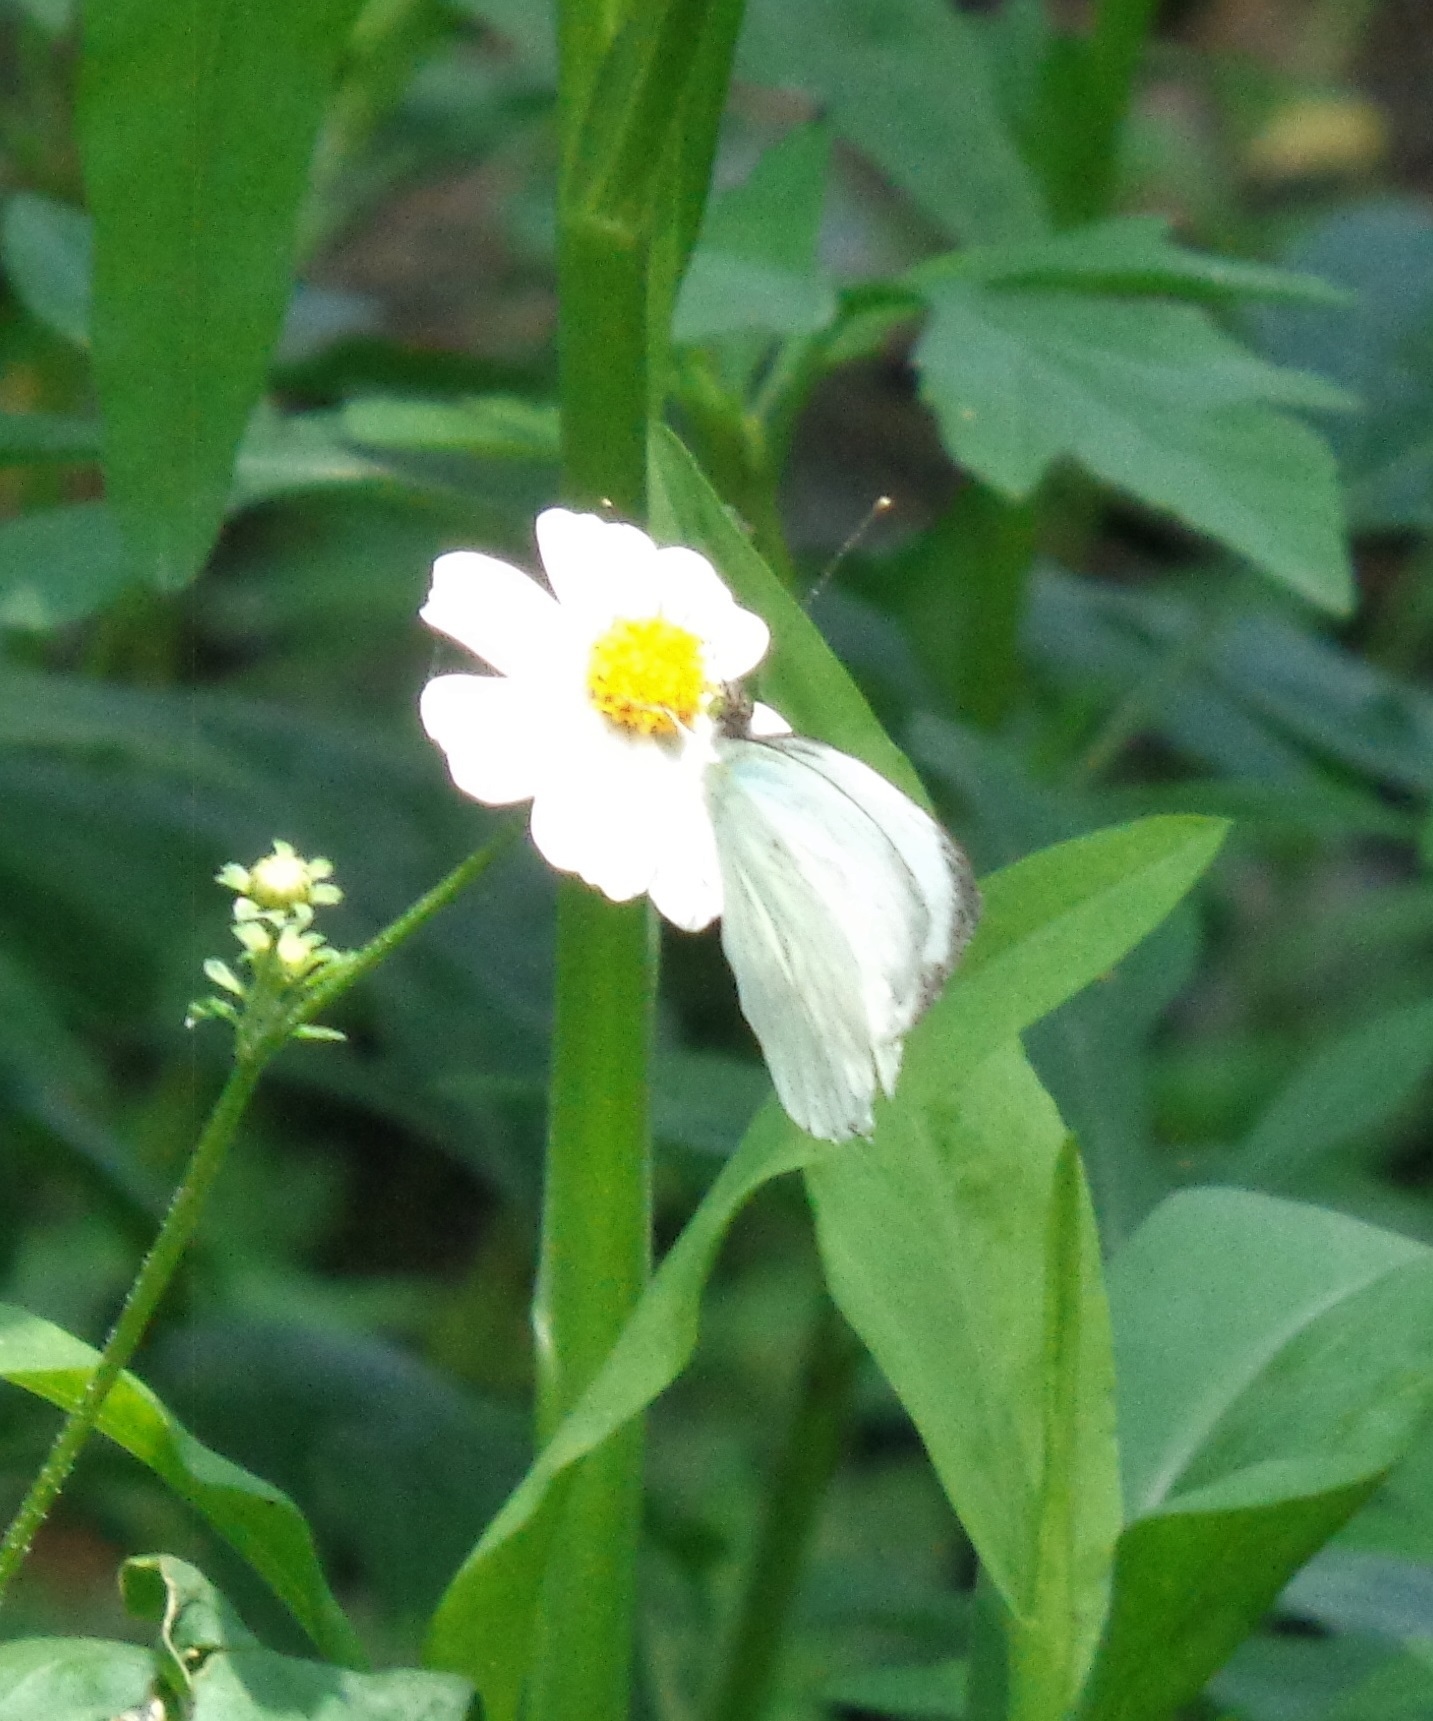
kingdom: Animalia
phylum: Arthropoda
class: Insecta
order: Lepidoptera
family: Pieridae
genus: Leptophobia
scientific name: Leptophobia aripa
